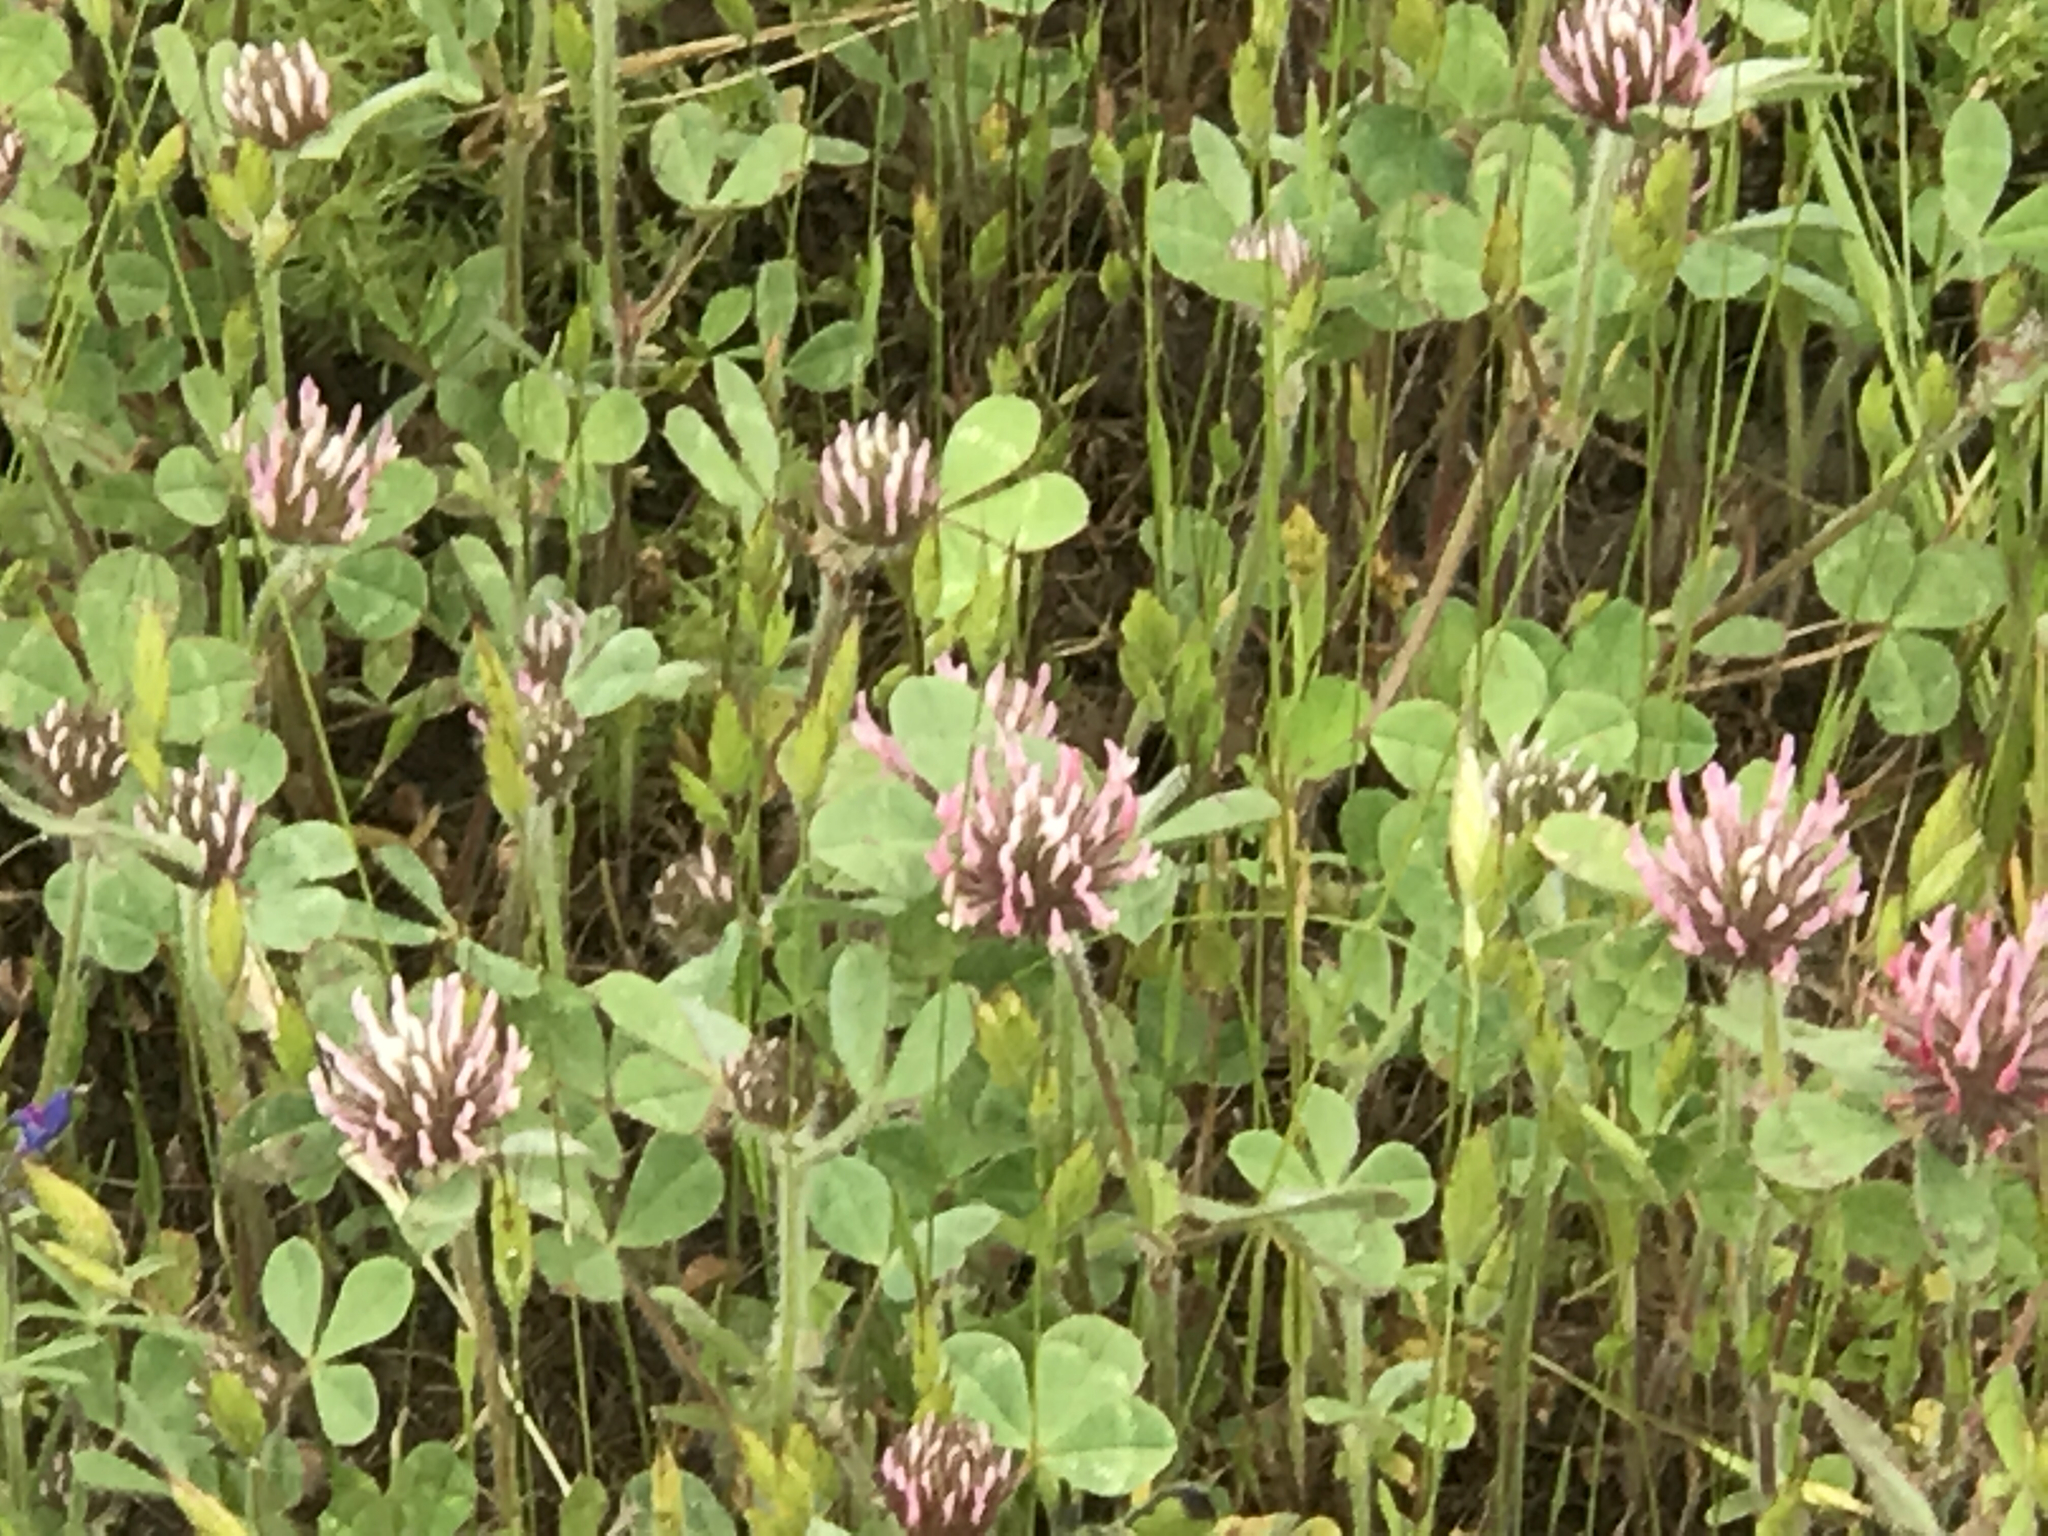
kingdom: Plantae
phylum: Tracheophyta
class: Magnoliopsida
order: Fabales
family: Fabaceae
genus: Trifolium
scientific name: Trifolium hirtum
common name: Rose clover
